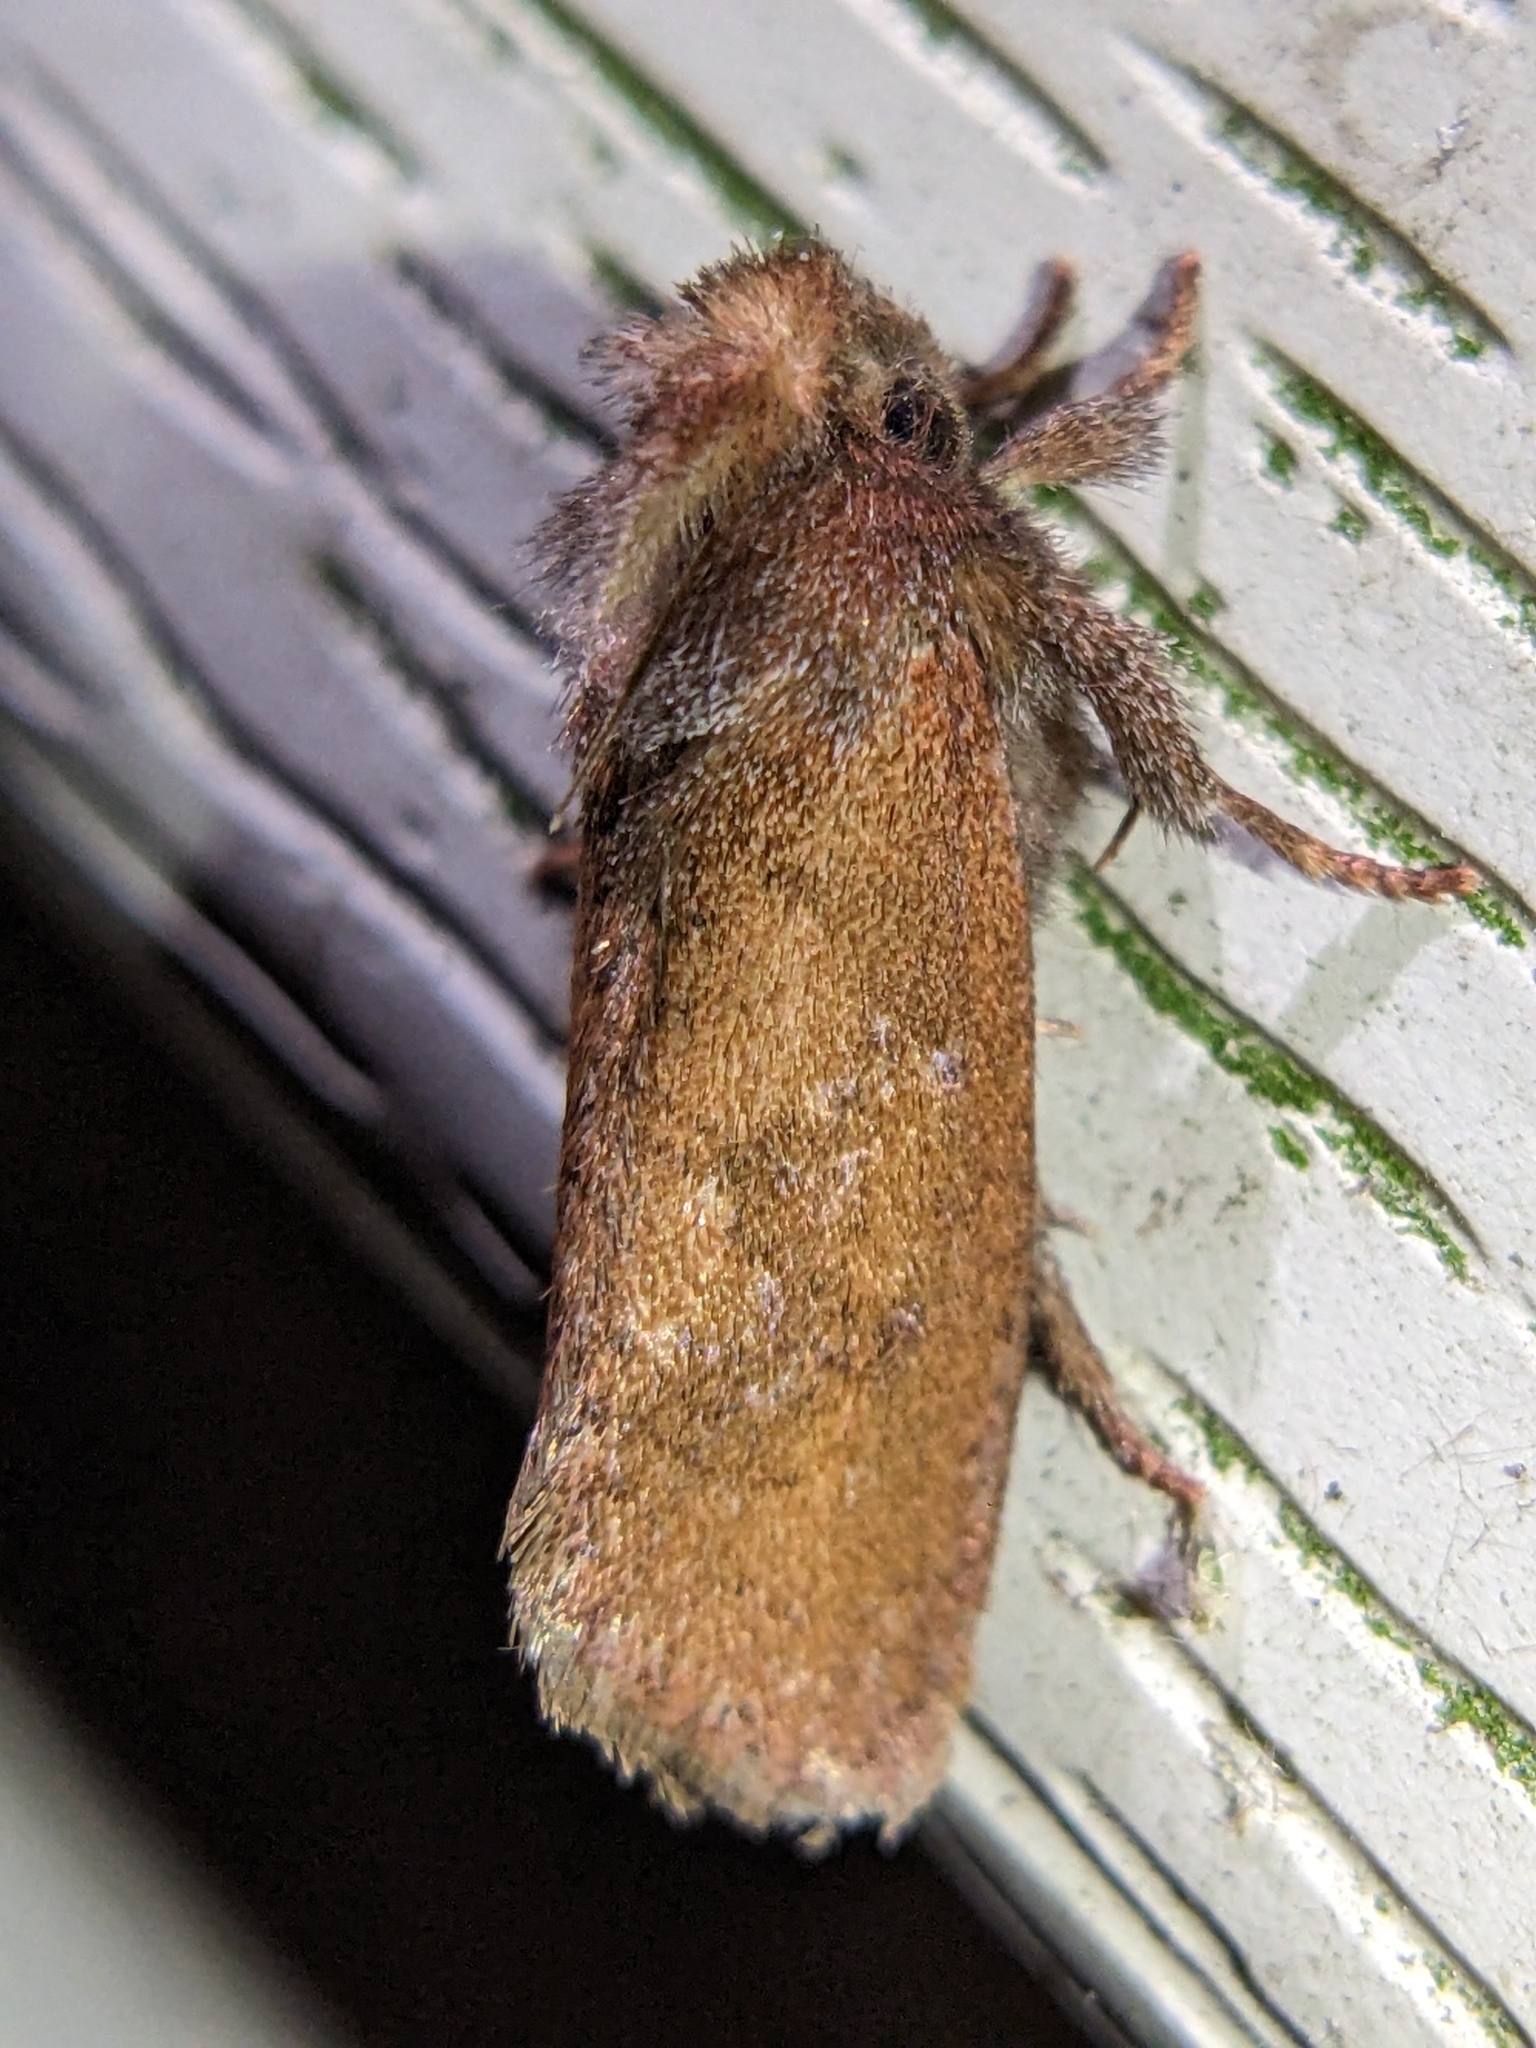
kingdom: Animalia
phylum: Arthropoda
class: Insecta
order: Lepidoptera
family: Tineidae
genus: Acrolophus
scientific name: Acrolophus plumifrontella
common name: Eastern grass tubeworm moth
